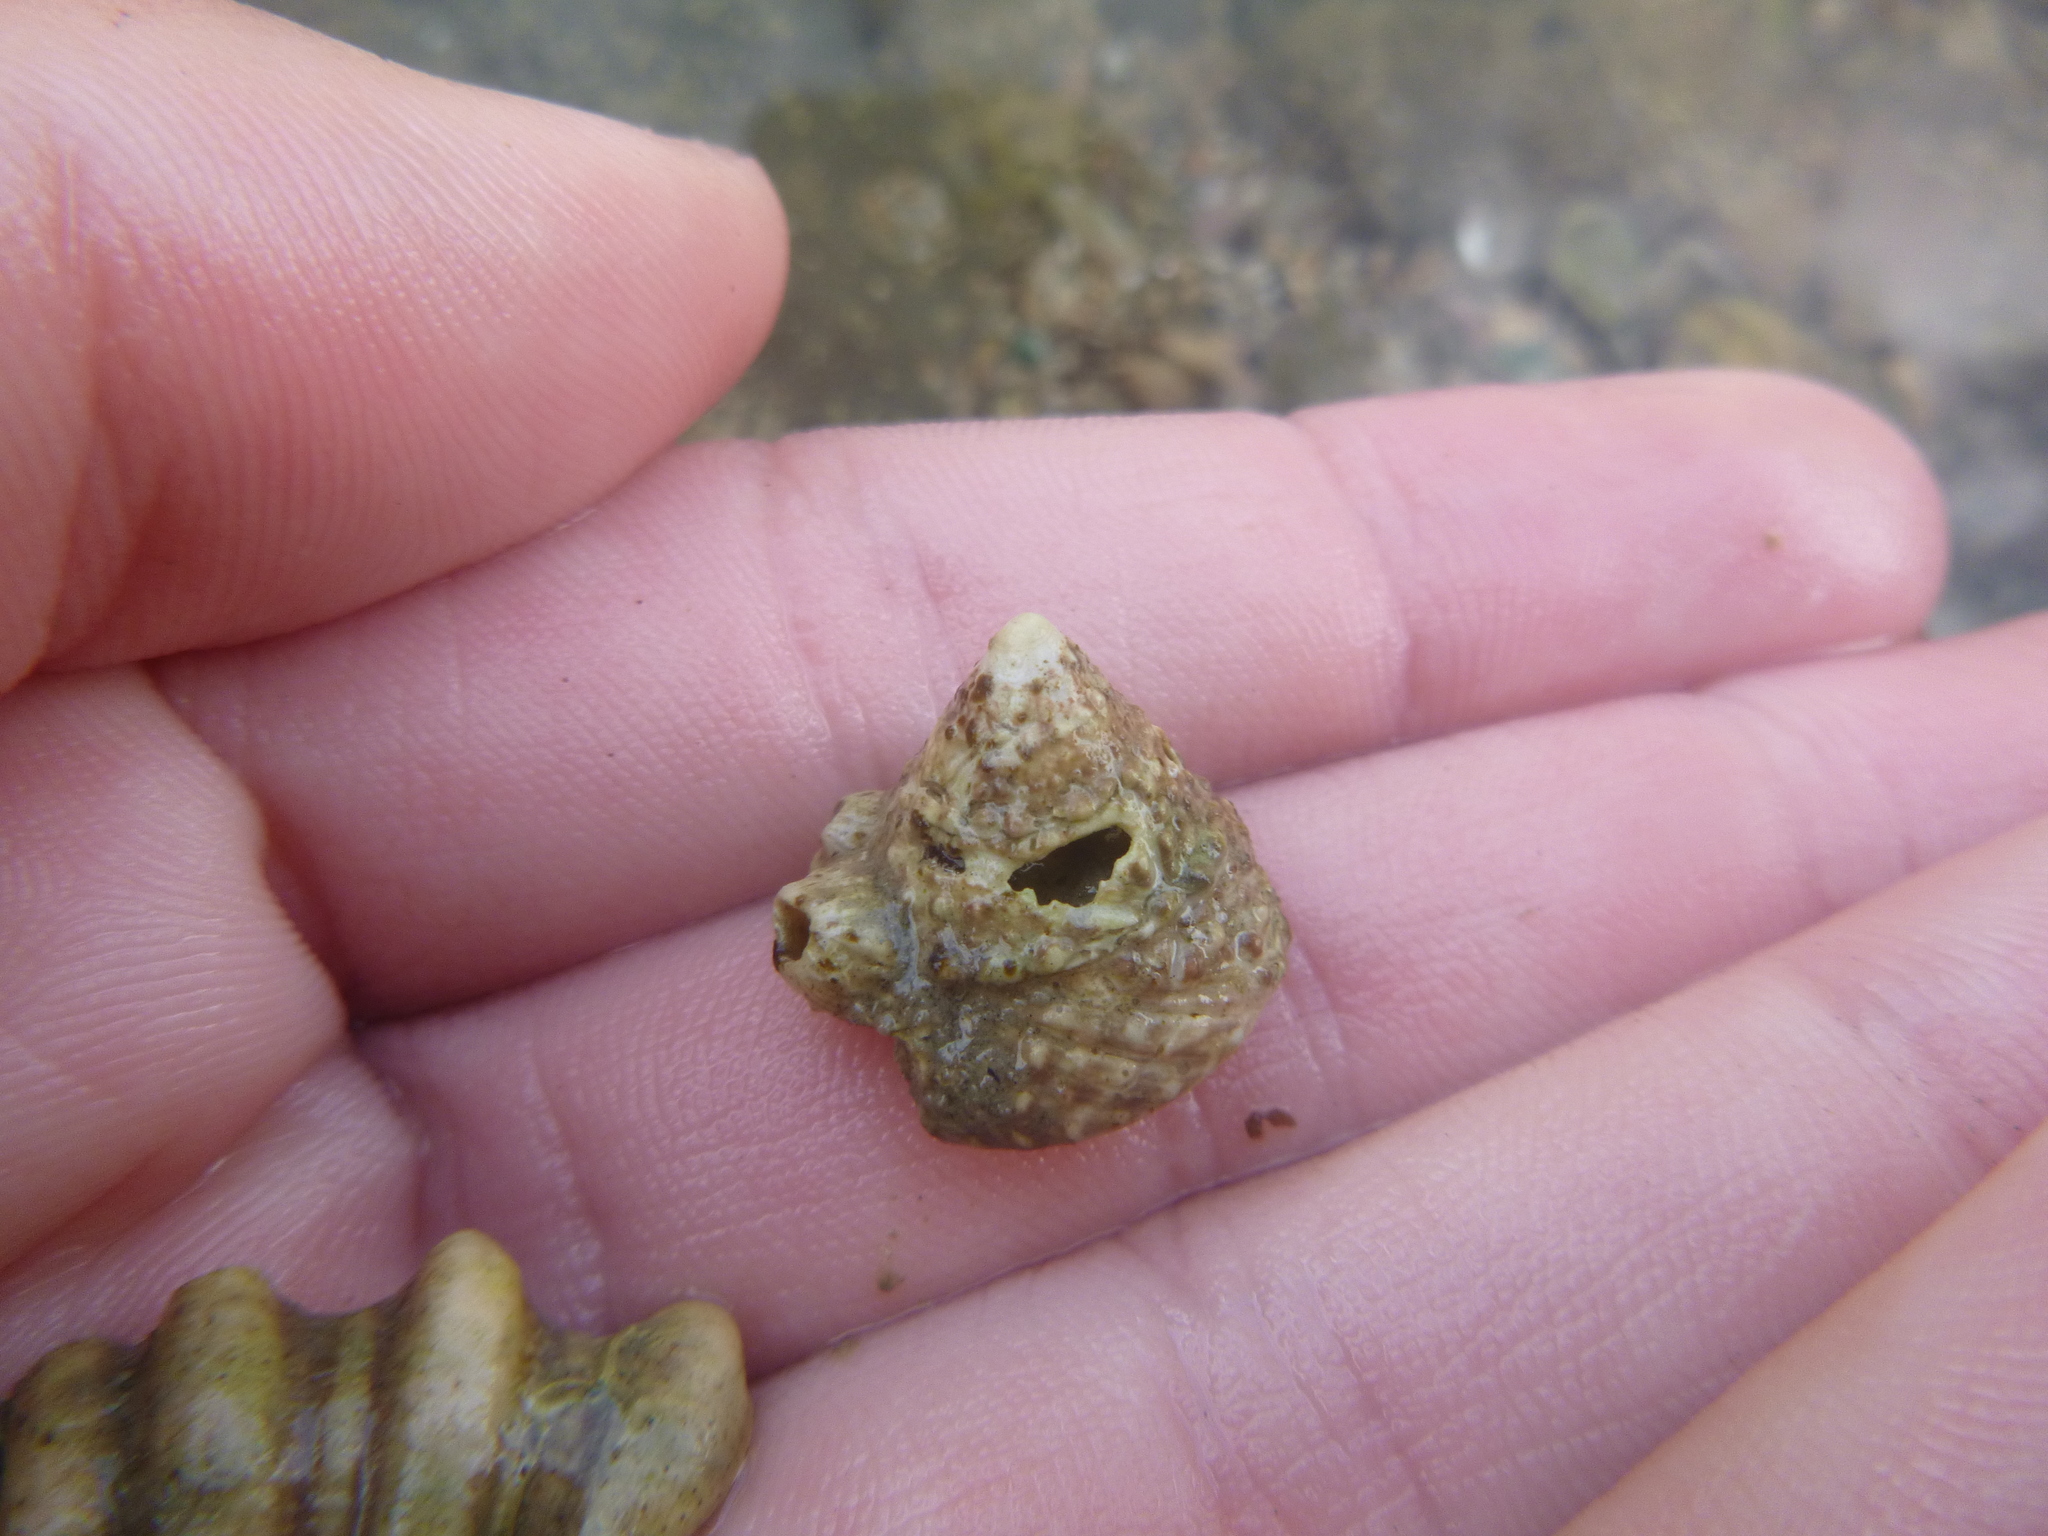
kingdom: Animalia
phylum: Mollusca
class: Gastropoda
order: Trochida
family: Trochidae
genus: Coelotrochus
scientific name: Coelotrochus viridis
